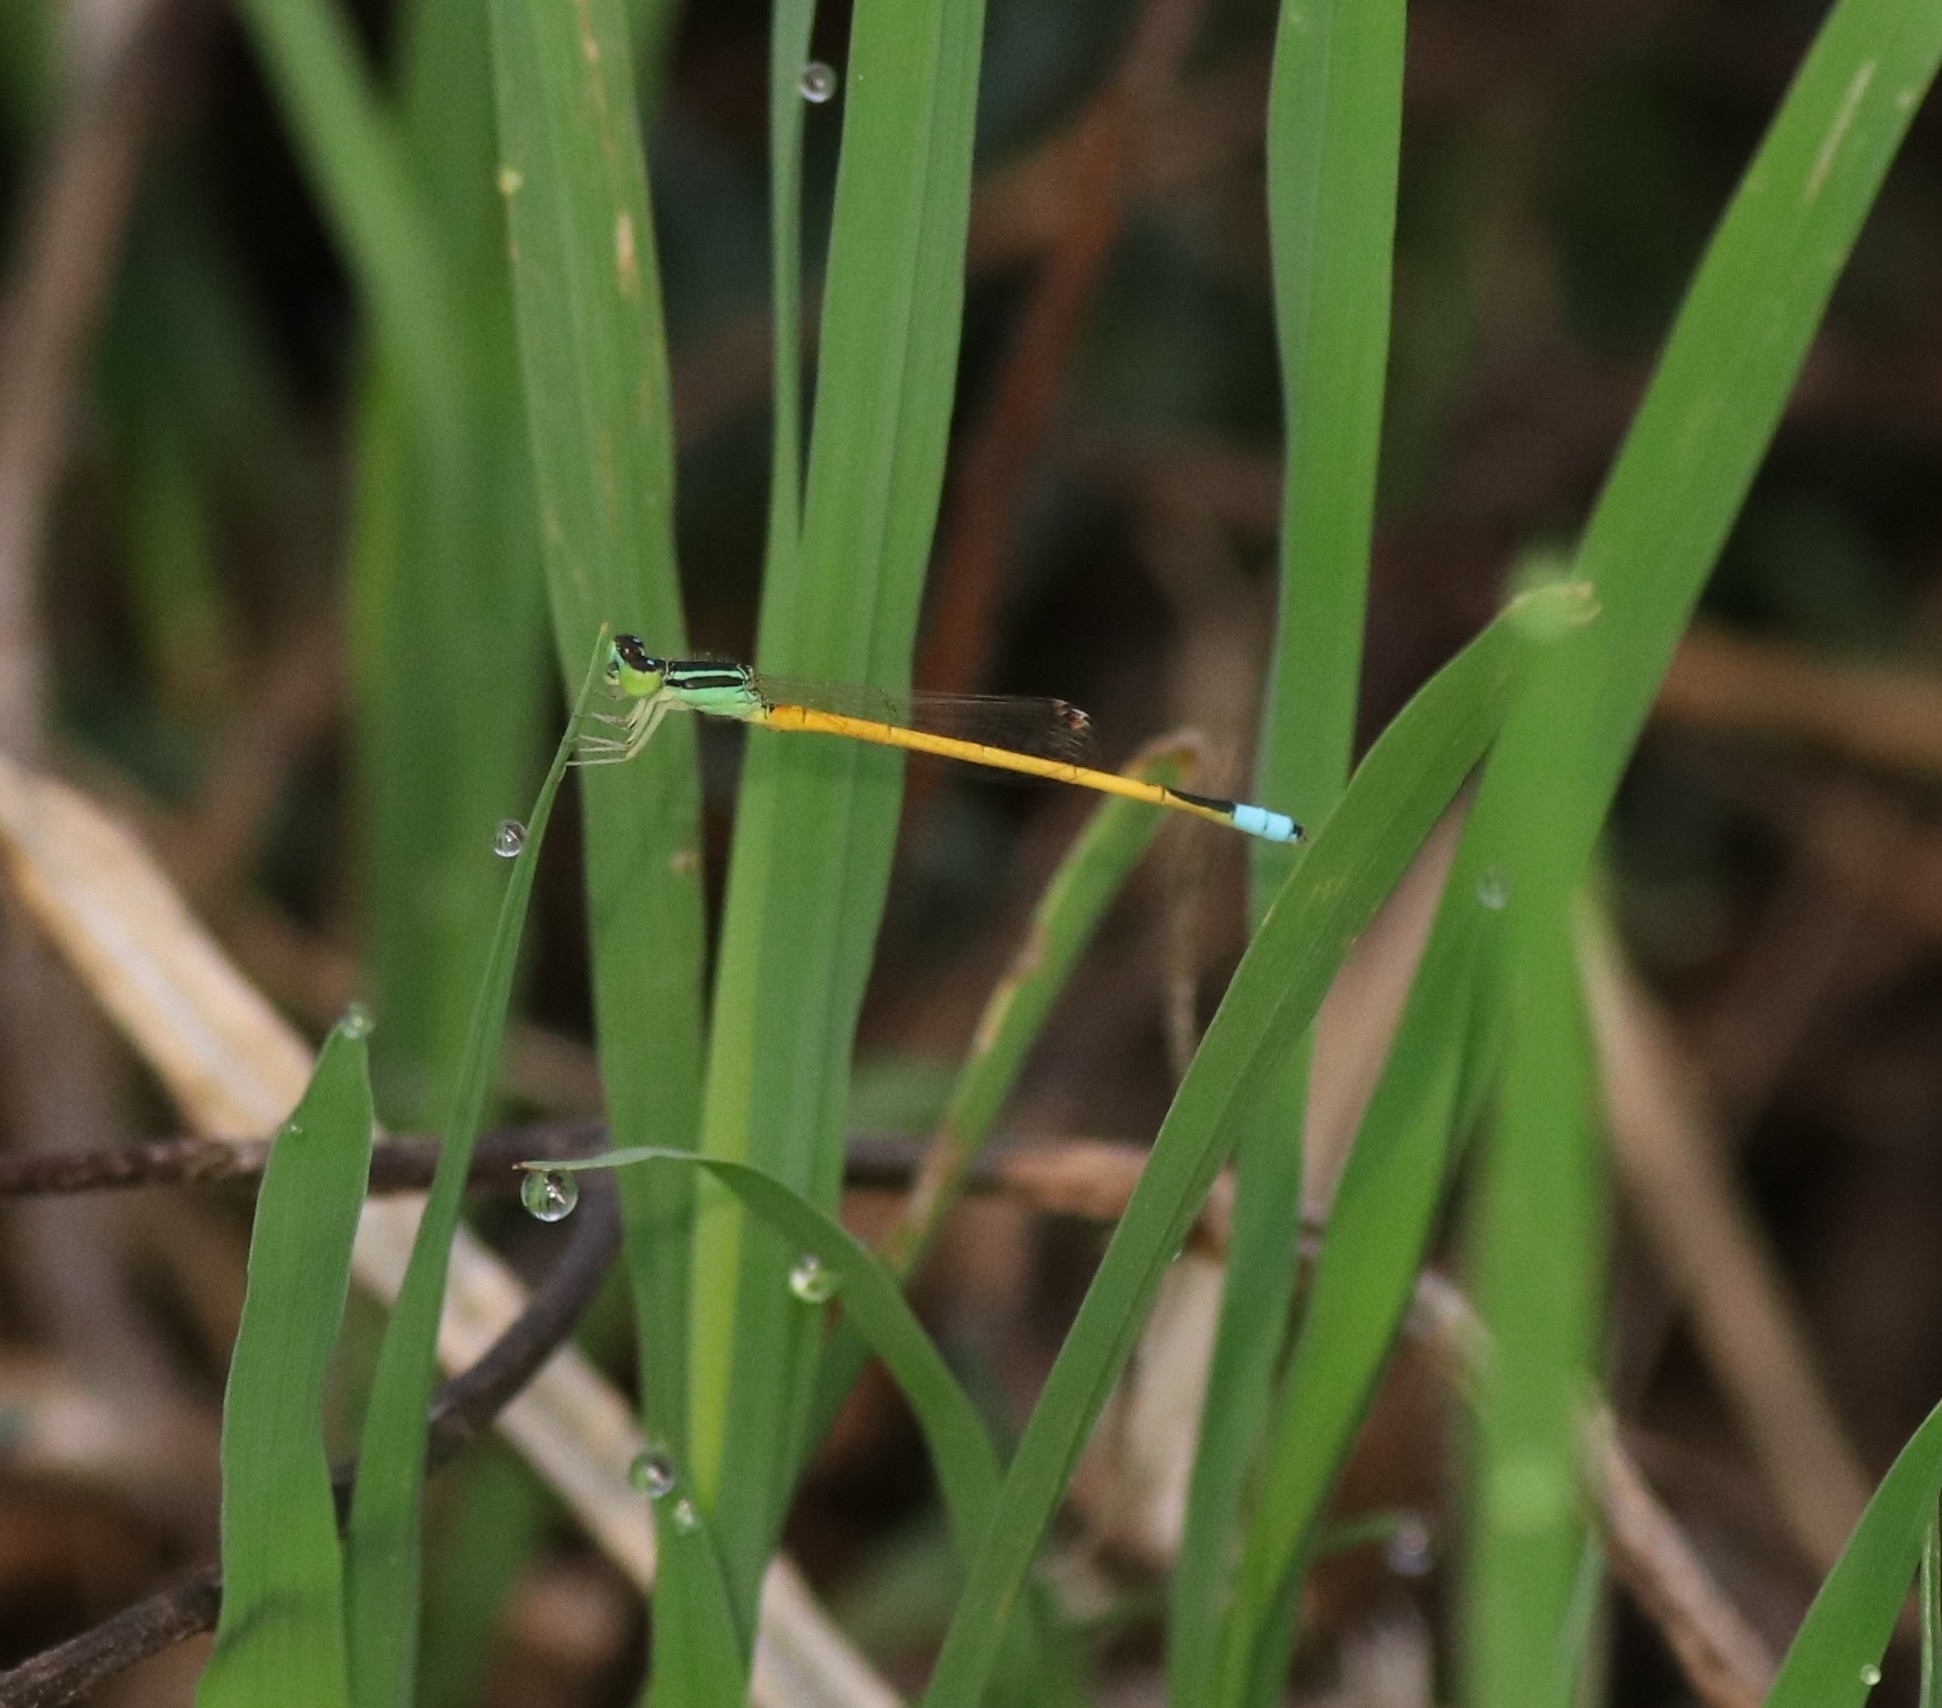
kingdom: Animalia
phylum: Arthropoda
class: Insecta
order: Odonata
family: Coenagrionidae
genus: Ischnura
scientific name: Ischnura rubilio
